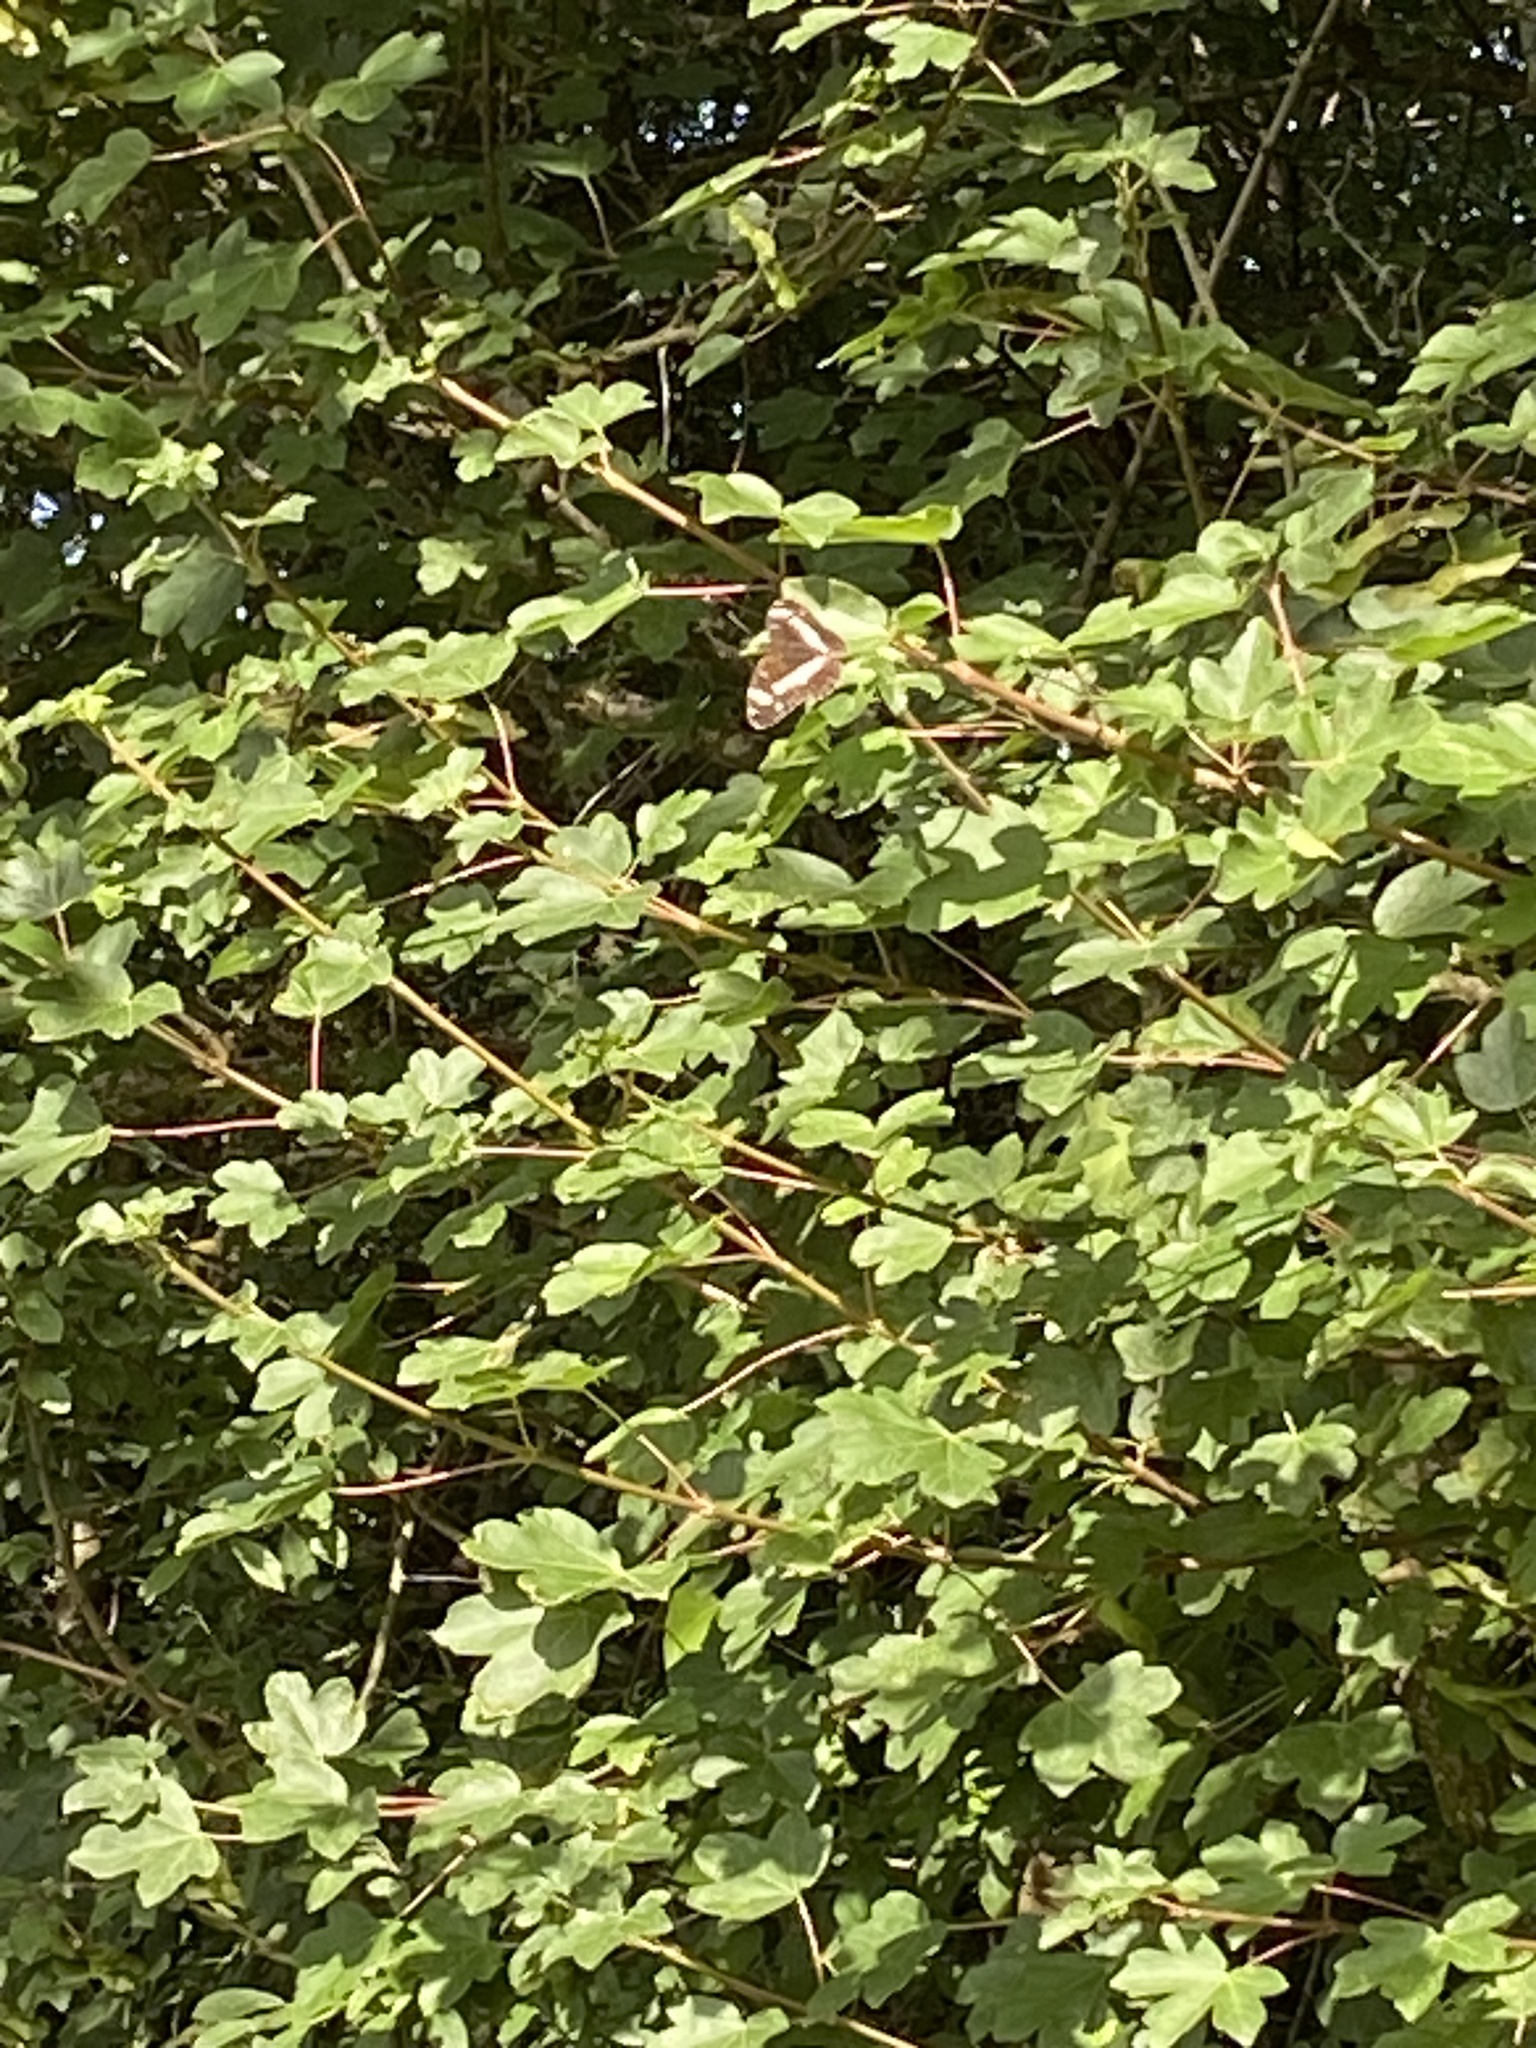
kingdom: Animalia
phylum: Arthropoda
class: Insecta
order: Lepidoptera
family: Nymphalidae
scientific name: Nymphalidae
